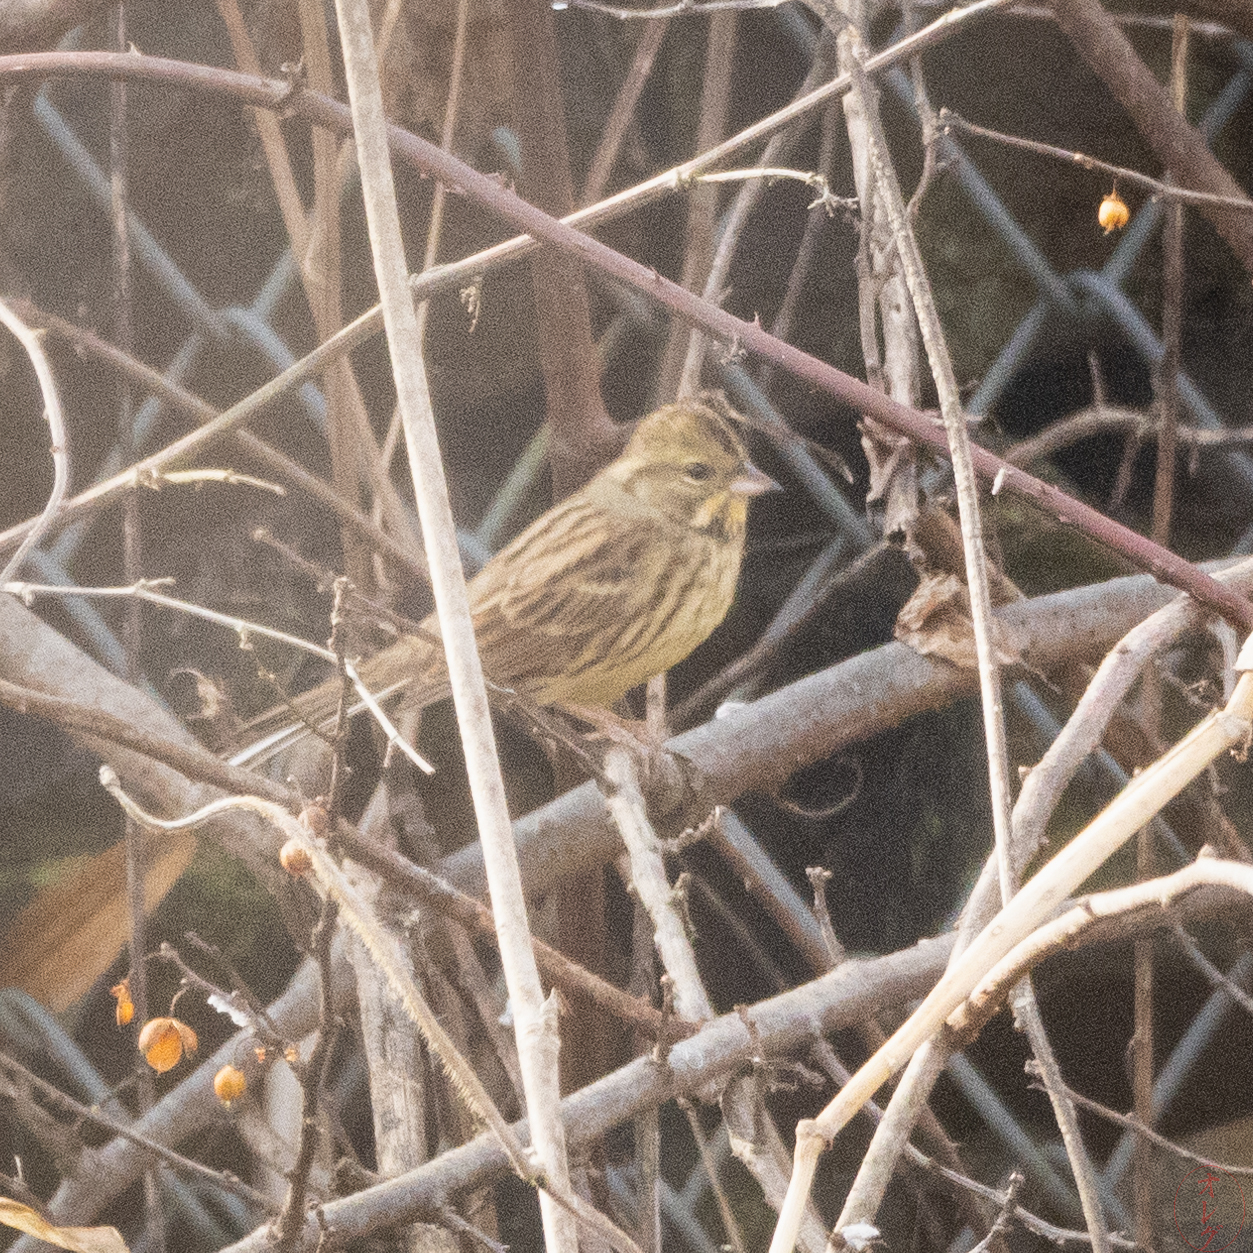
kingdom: Animalia
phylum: Chordata
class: Aves
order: Passeriformes
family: Emberizidae
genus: Emberiza
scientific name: Emberiza personata
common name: Masked bunting
